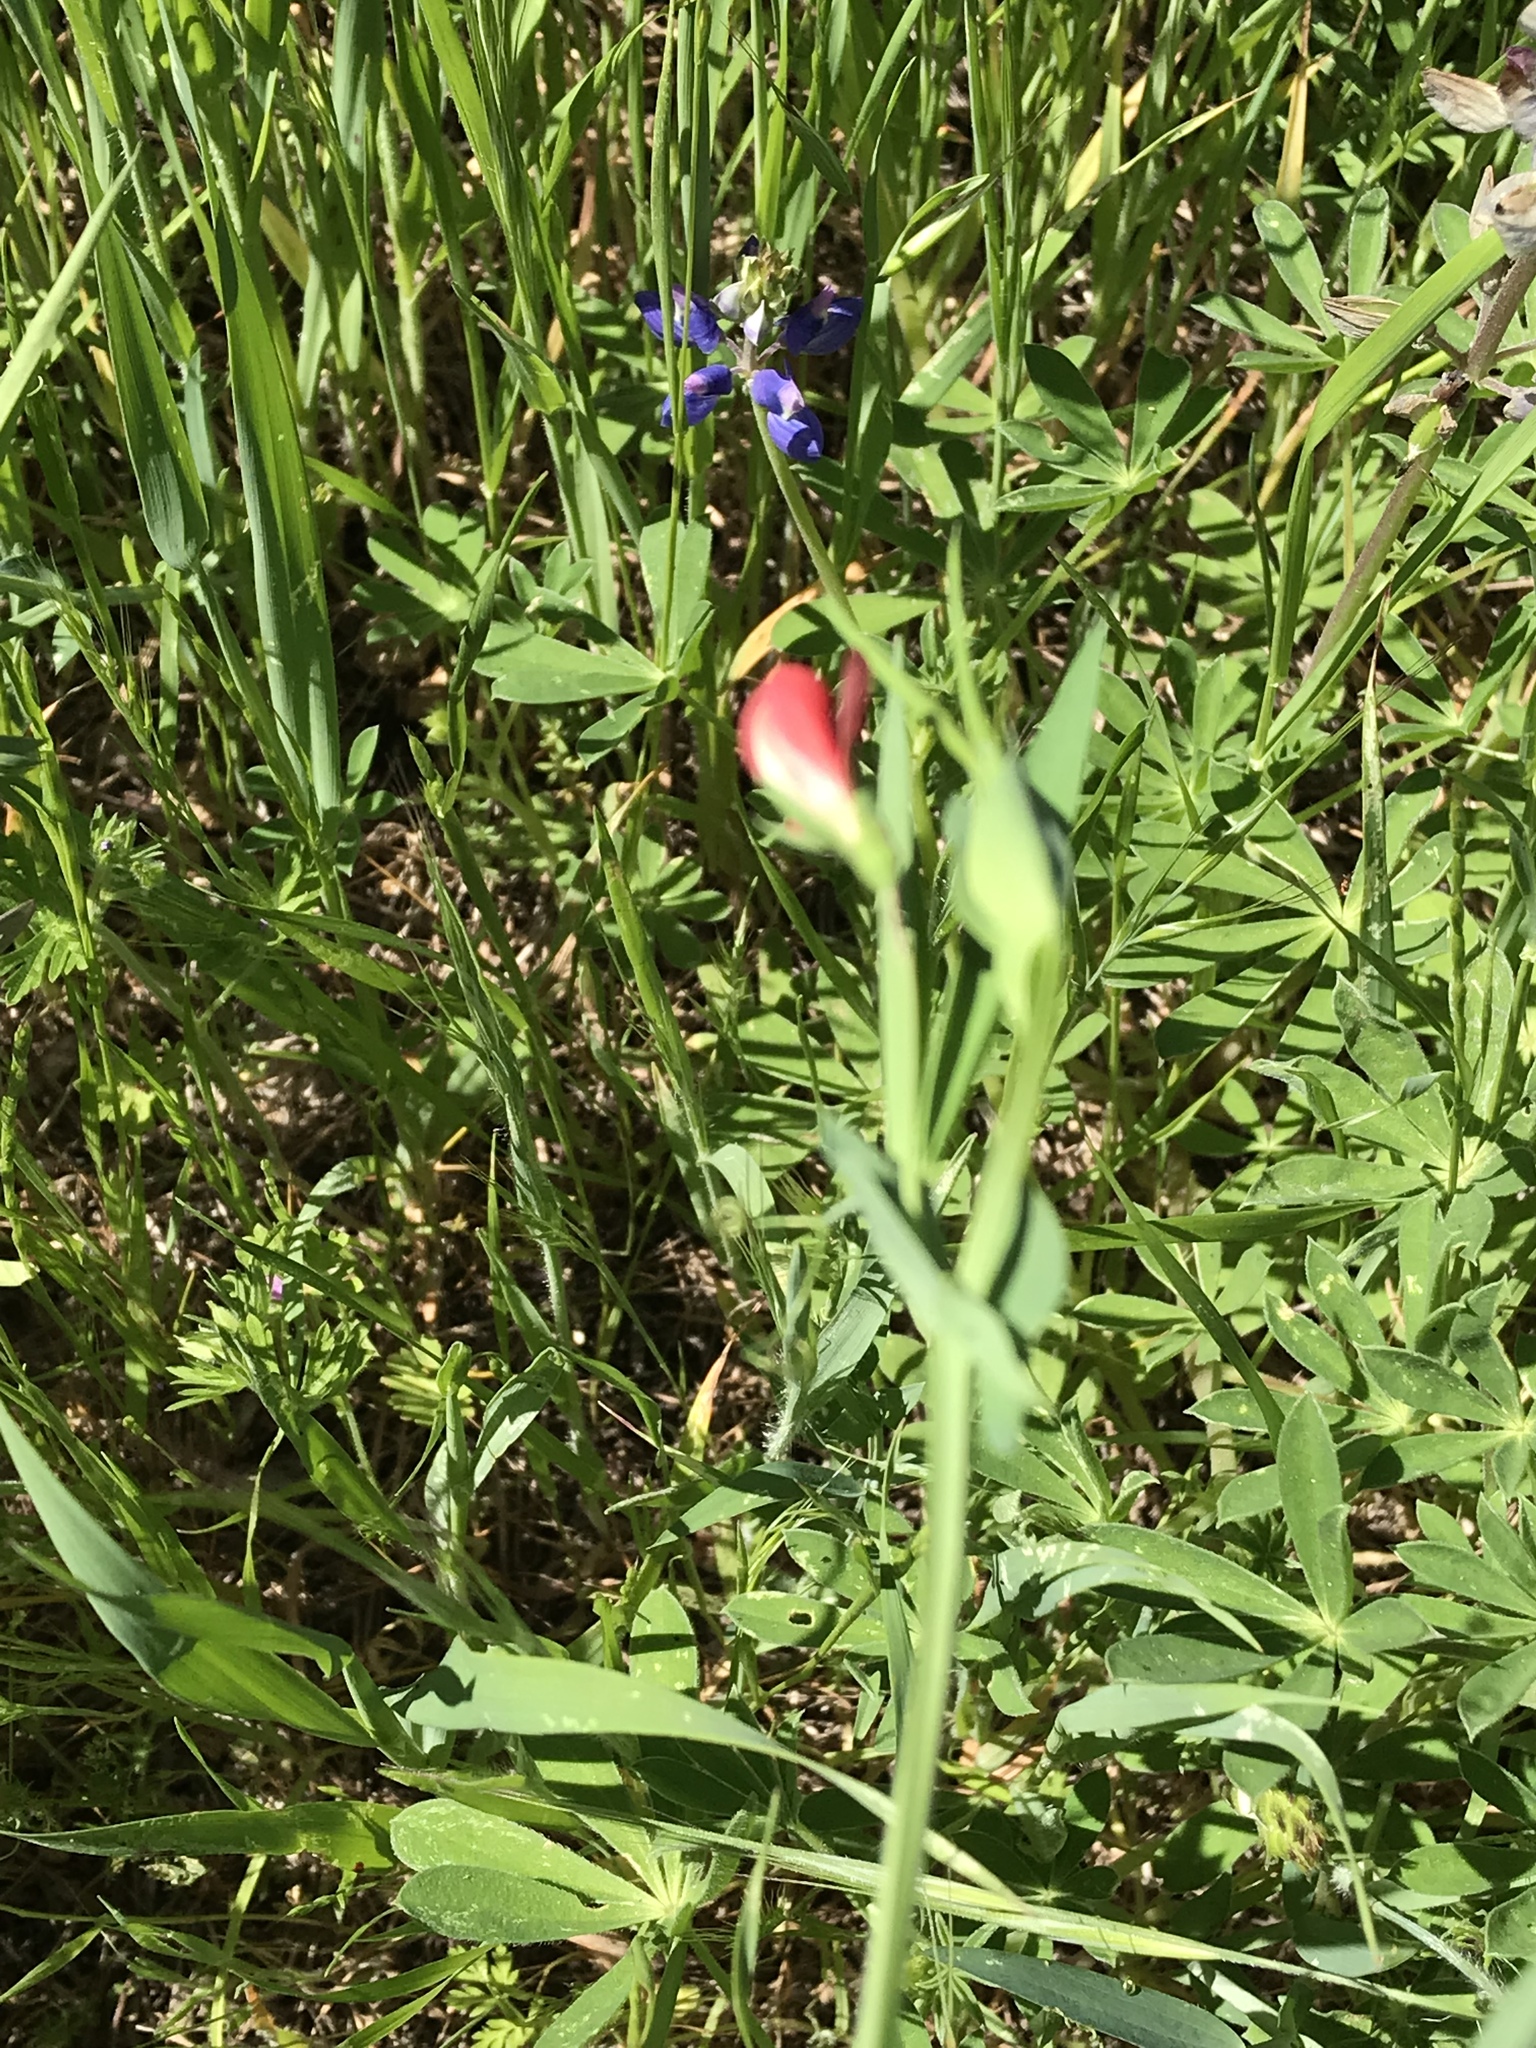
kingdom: Plantae
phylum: Tracheophyta
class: Magnoliopsida
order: Fabales
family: Fabaceae
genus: Lathyrus
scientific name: Lathyrus cicera
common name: Red vetchling
